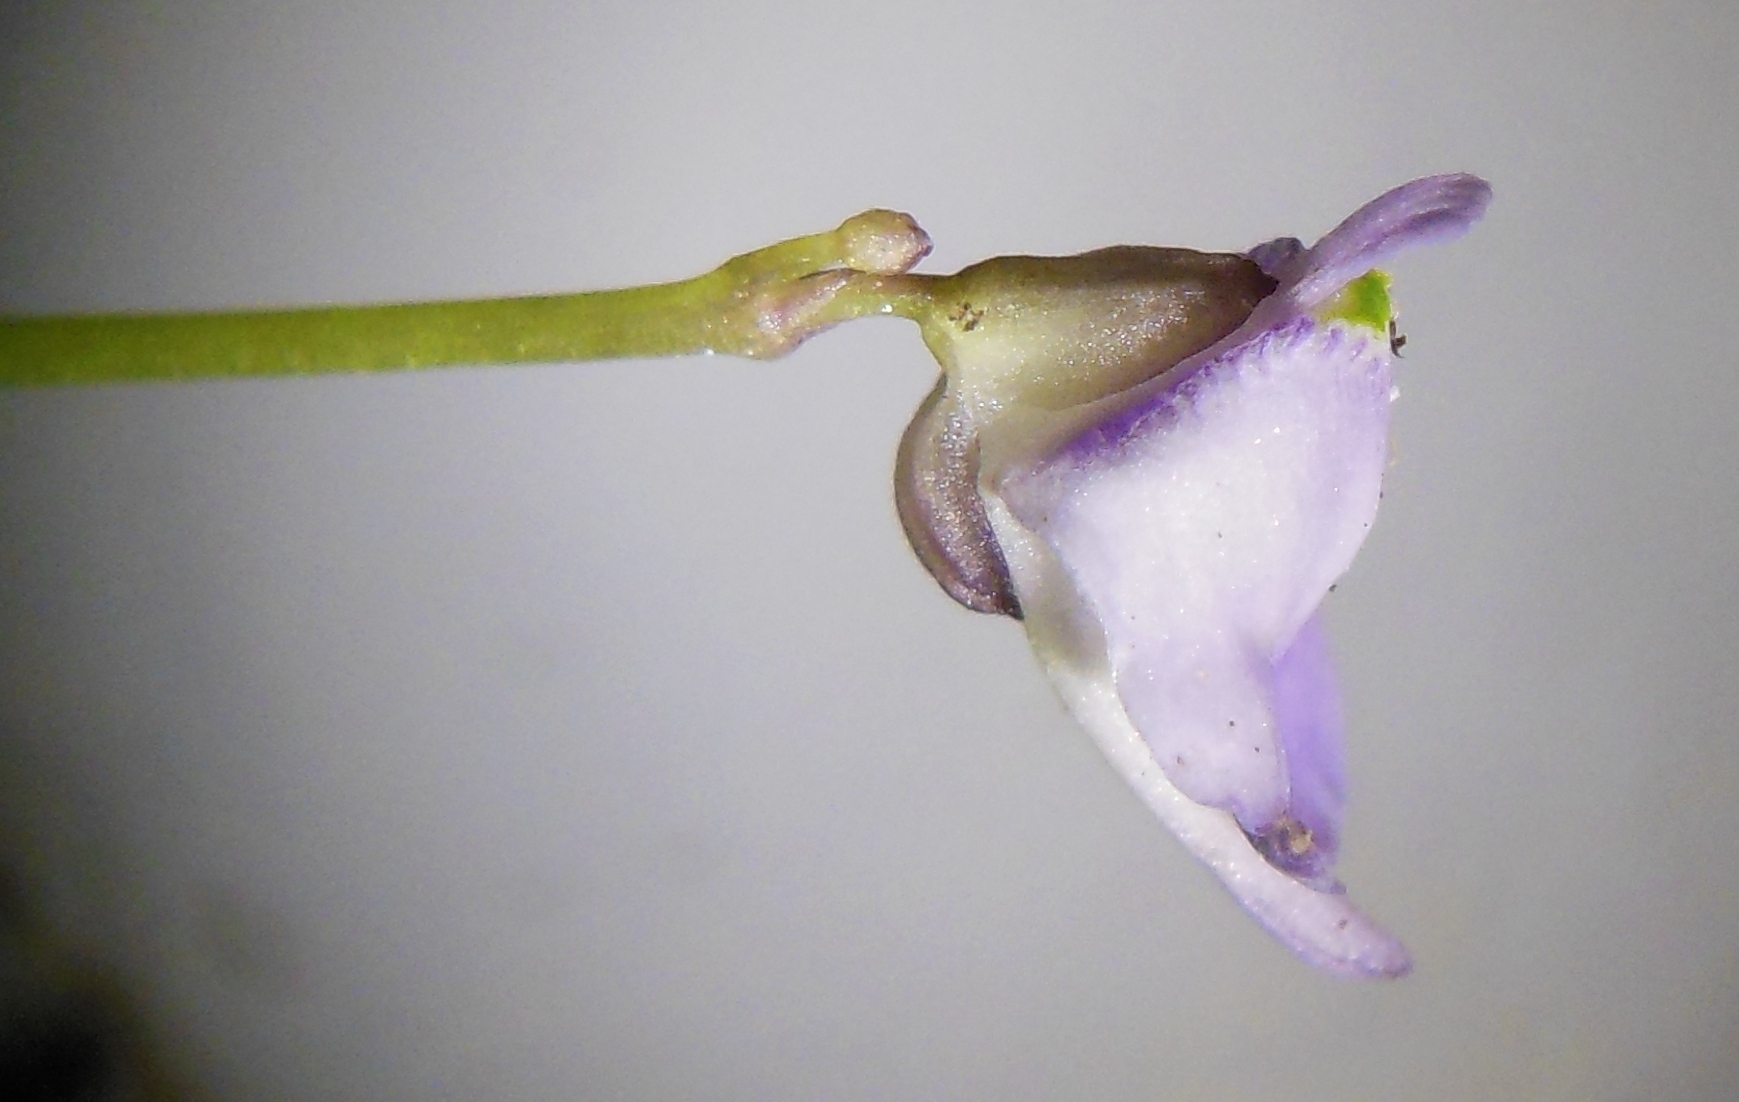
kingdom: Plantae
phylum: Tracheophyta
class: Magnoliopsida
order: Lamiales
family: Lentibulariaceae
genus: Utricularia
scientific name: Utricularia livida
